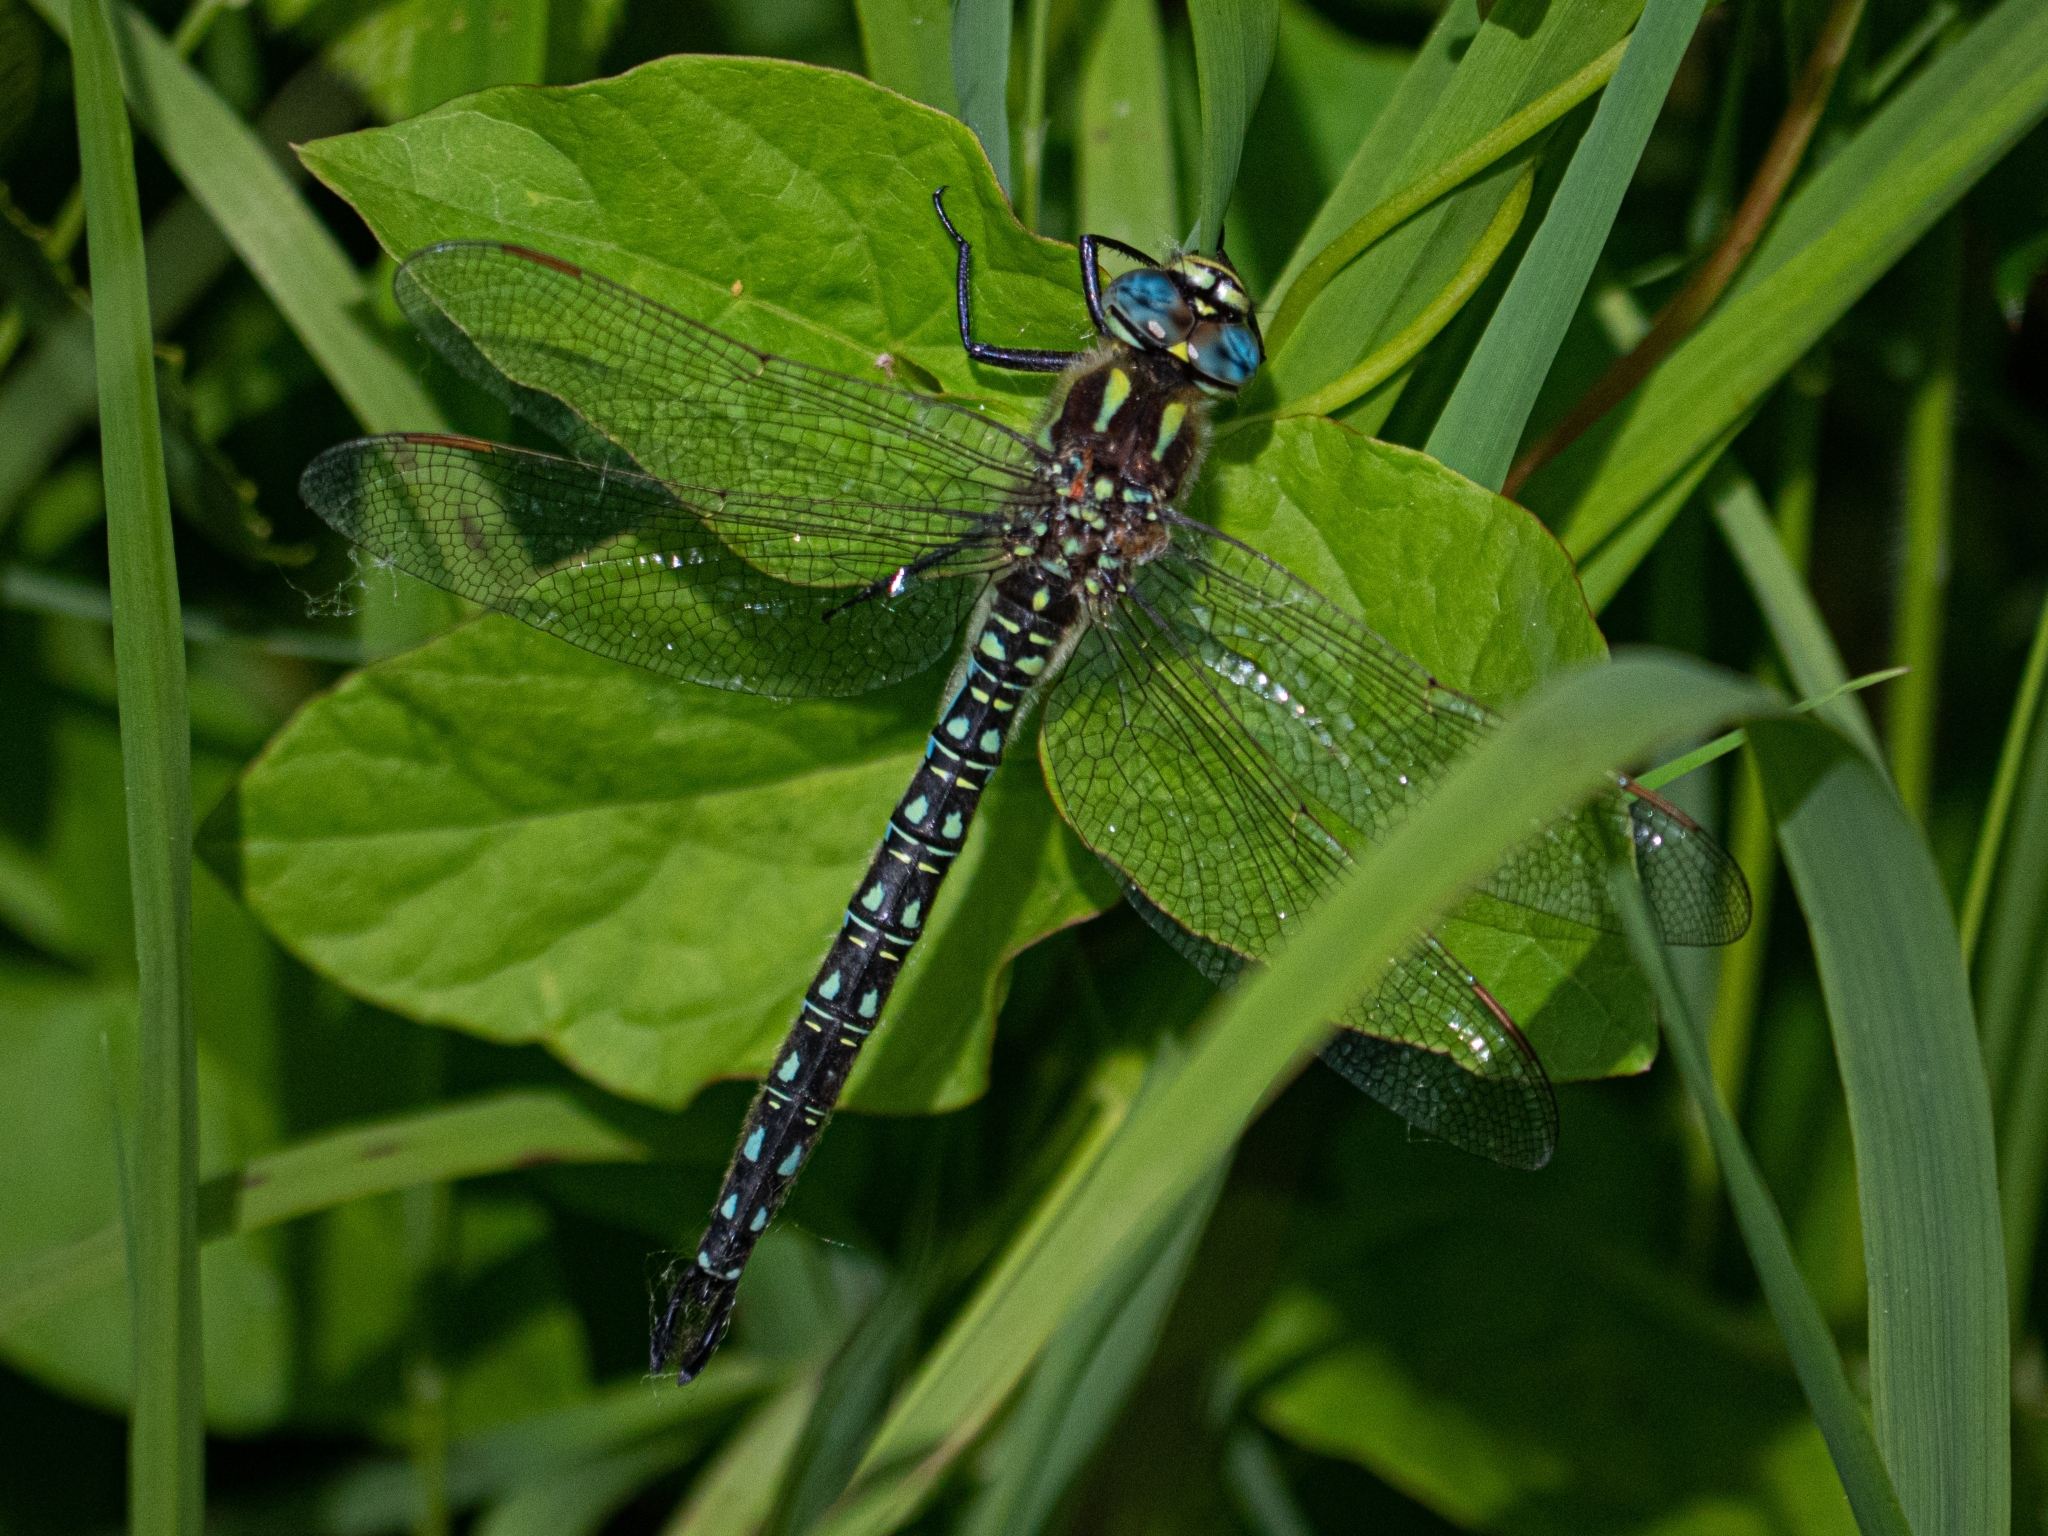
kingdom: Animalia
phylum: Arthropoda
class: Insecta
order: Odonata
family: Aeshnidae
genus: Brachytron
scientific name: Brachytron pratense
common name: Hairy hawker
